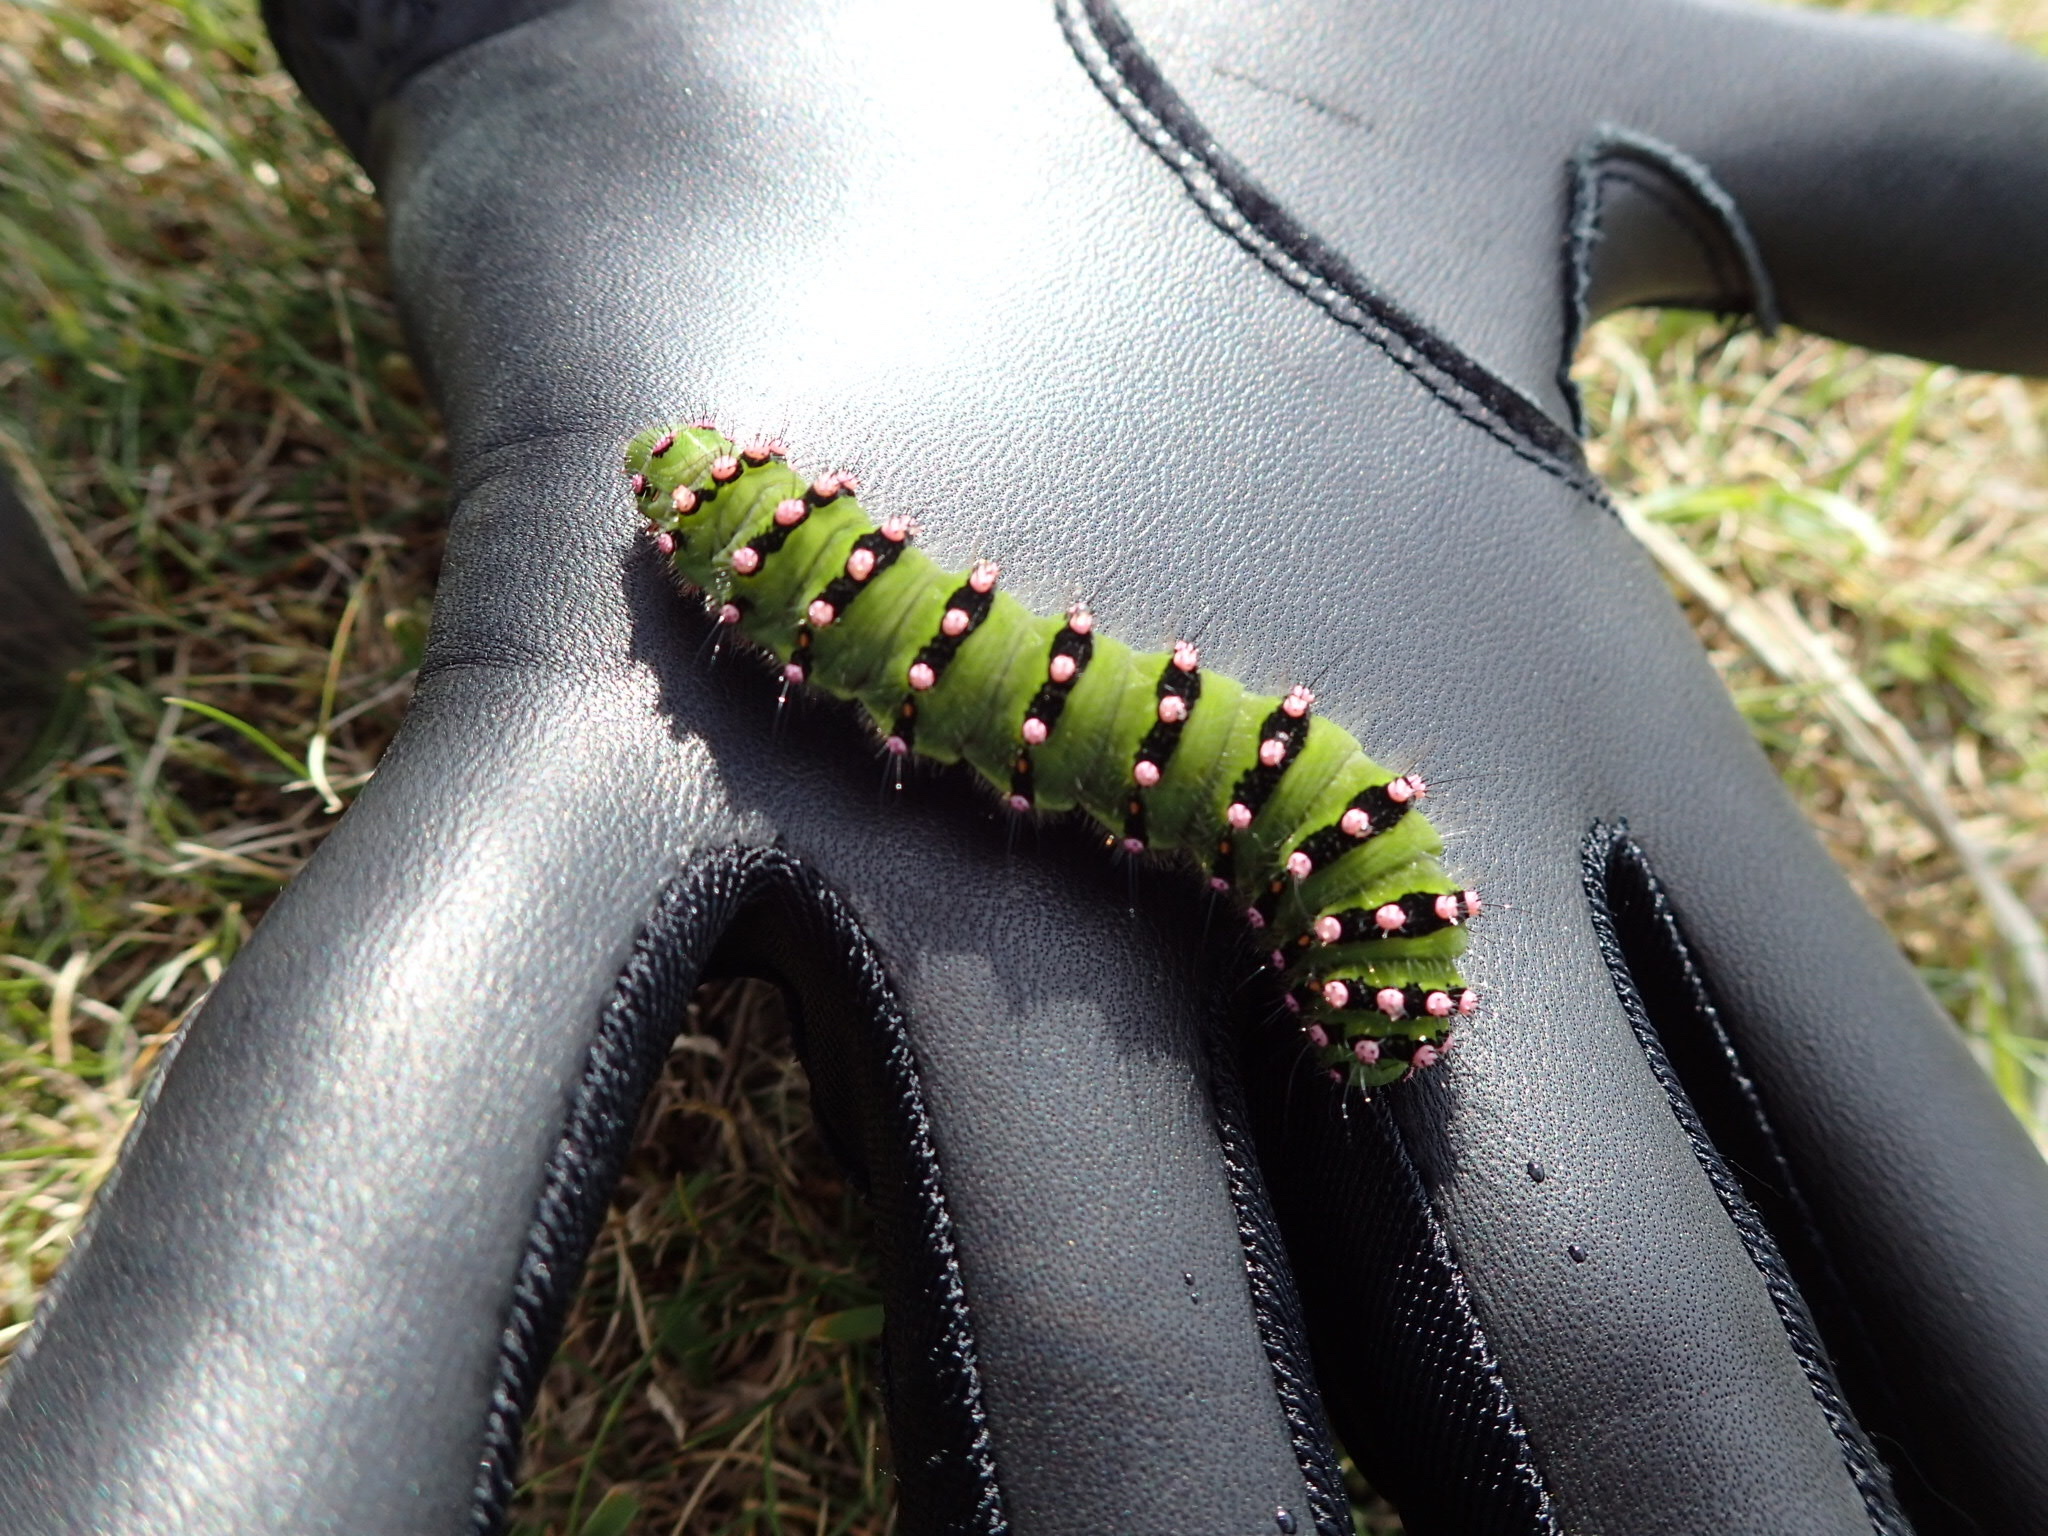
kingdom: Animalia
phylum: Arthropoda
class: Insecta
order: Lepidoptera
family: Saturniidae
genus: Saturnia
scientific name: Saturnia pavonia
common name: Emperor moth
